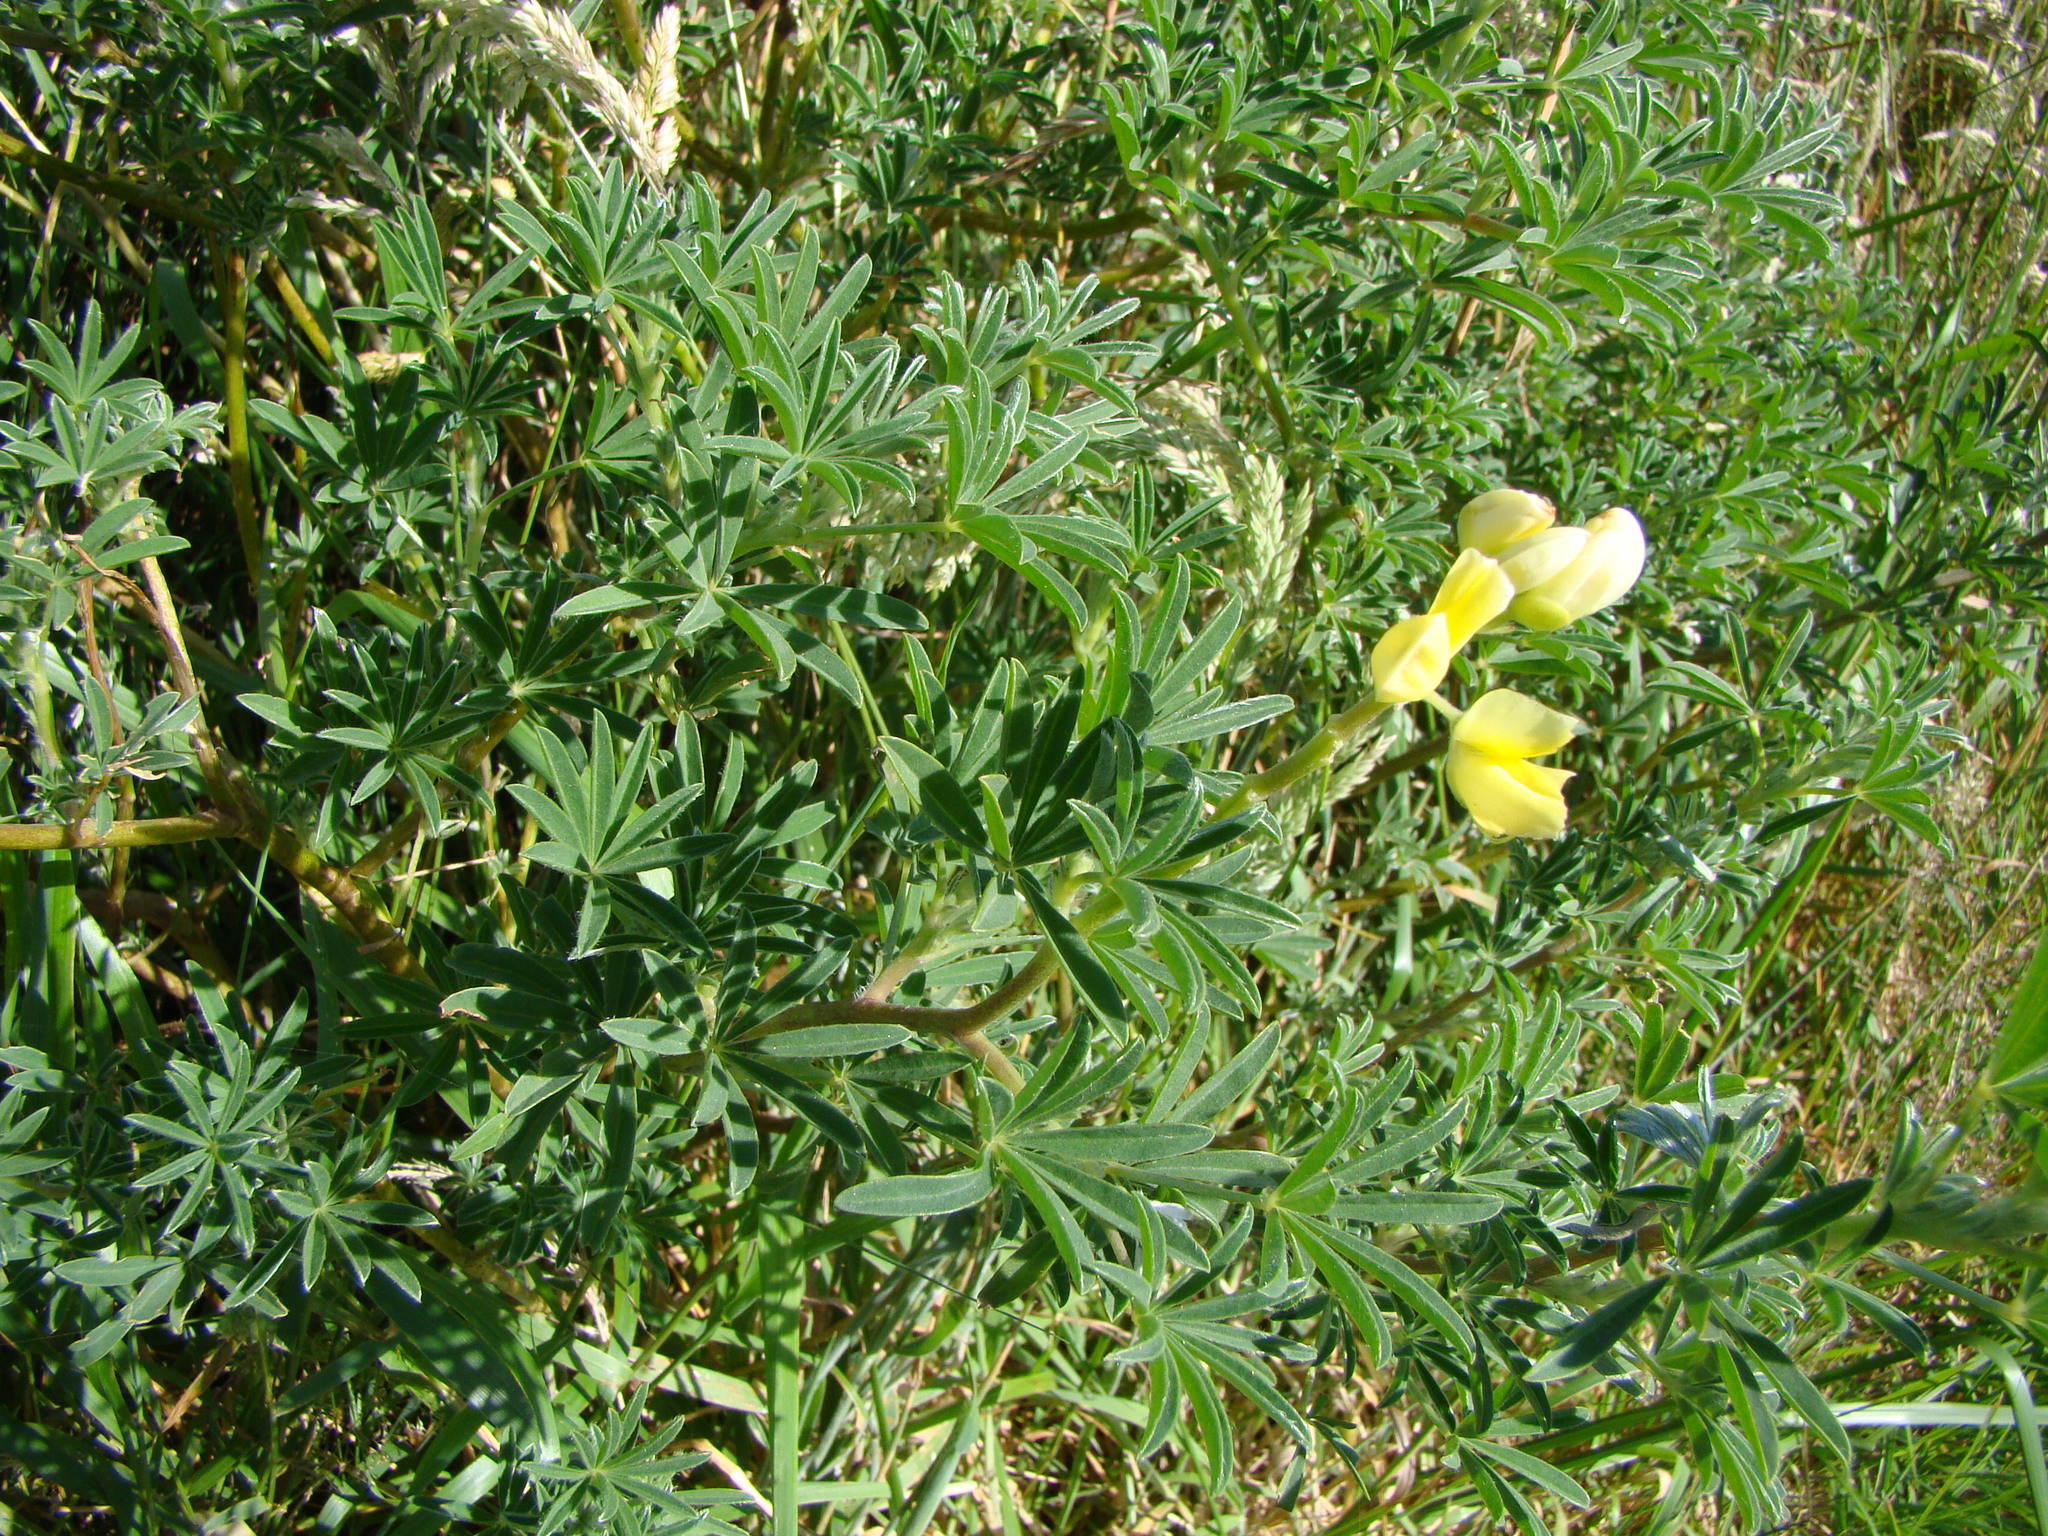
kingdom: Plantae
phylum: Tracheophyta
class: Magnoliopsida
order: Fabales
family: Fabaceae
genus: Lupinus
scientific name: Lupinus arboreus
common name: Yellow bush lupine
